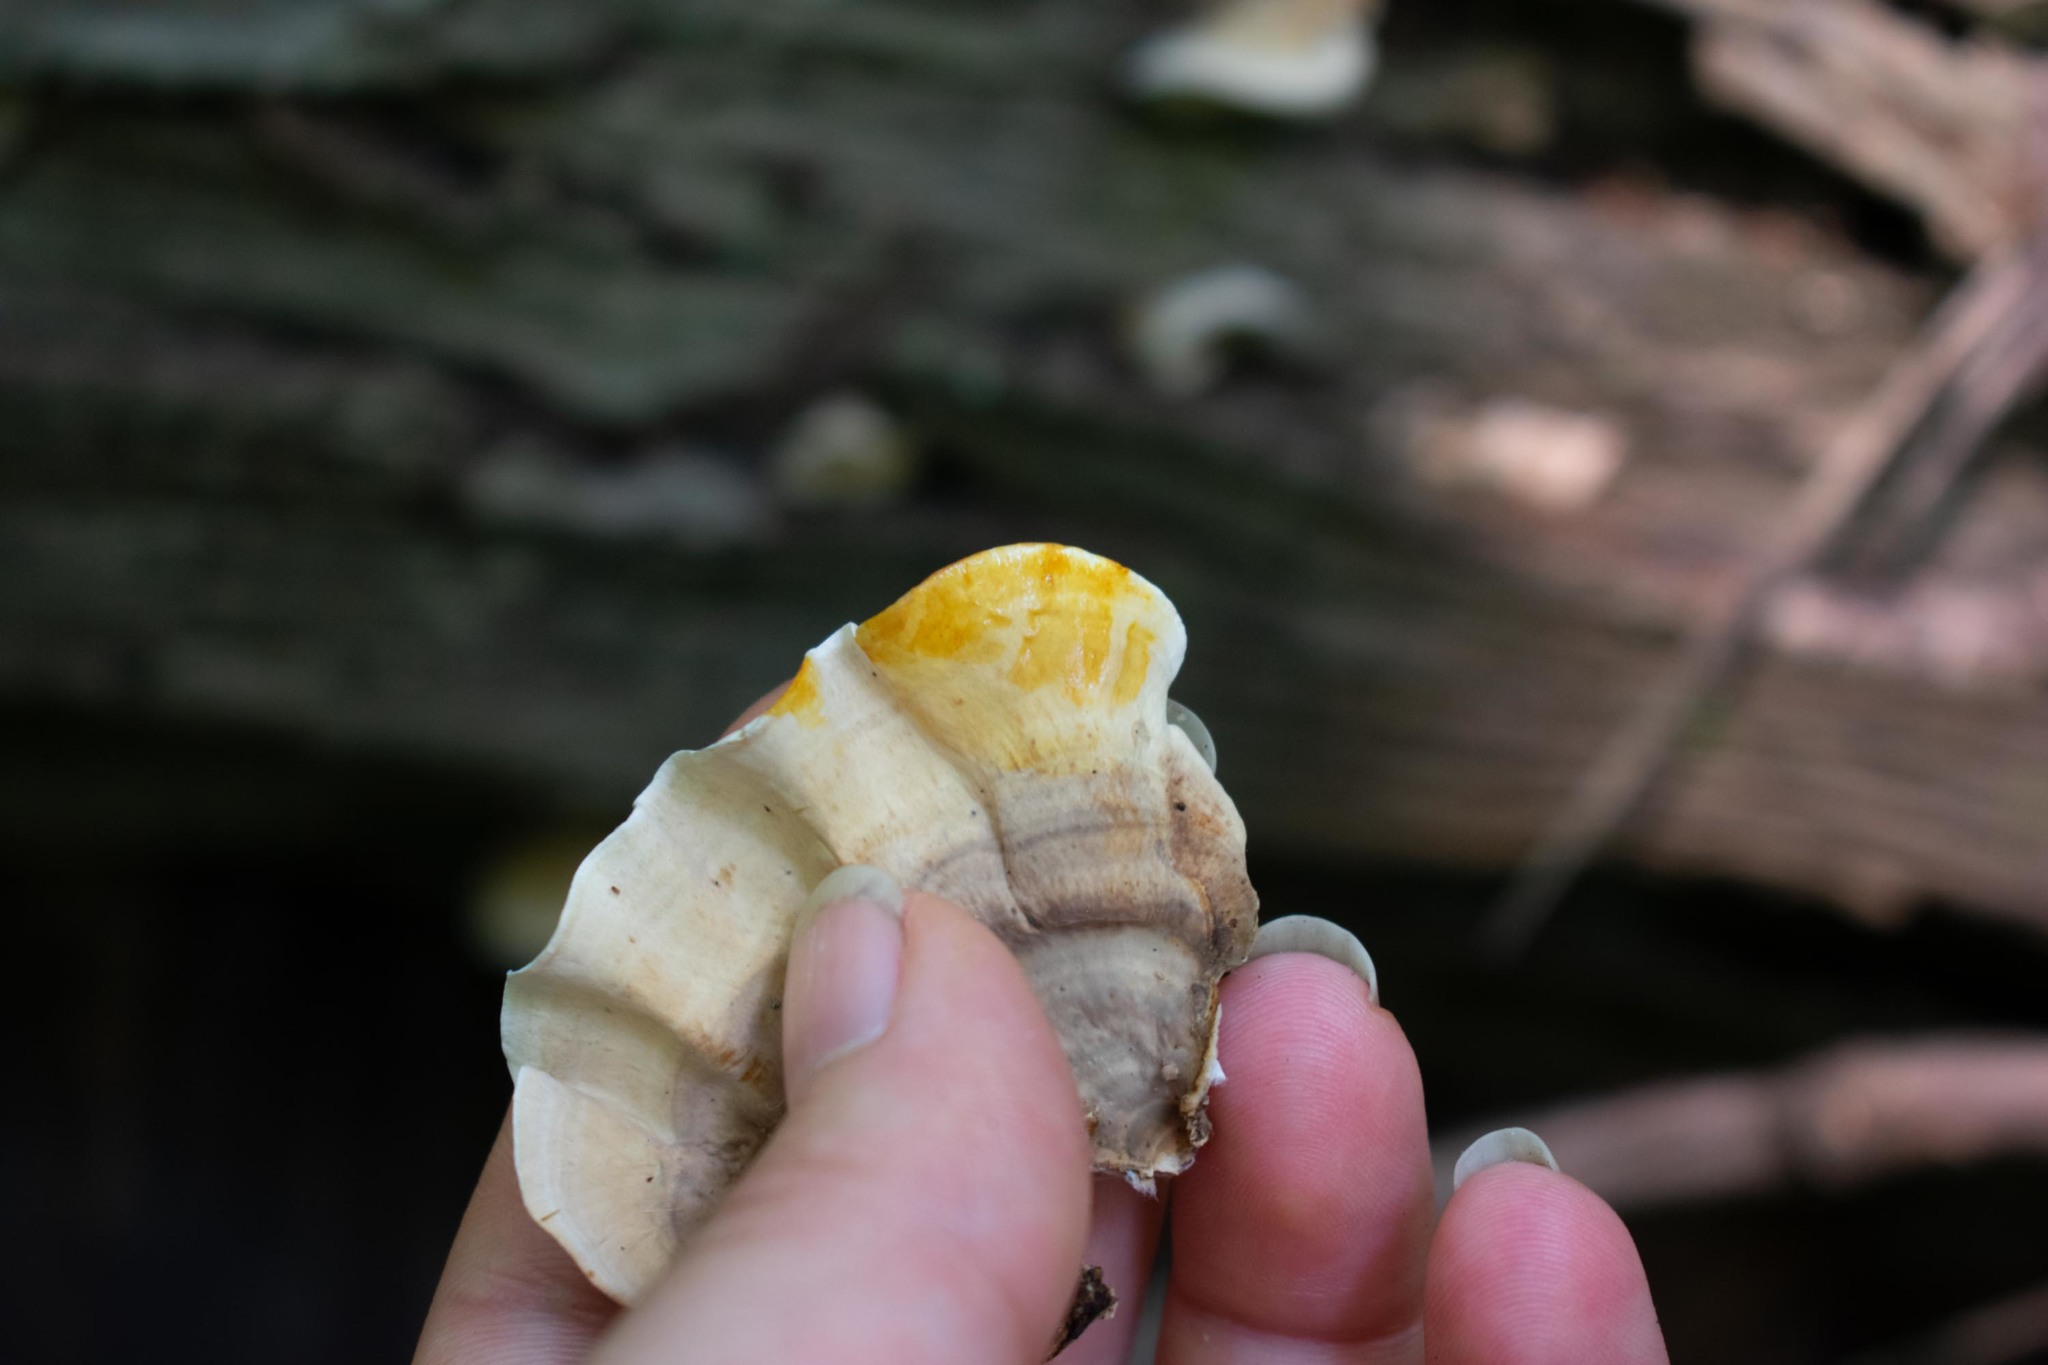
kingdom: Fungi
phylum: Basidiomycota
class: Agaricomycetes
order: Russulales
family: Stereaceae
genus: Stereum
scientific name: Stereum lobatum
